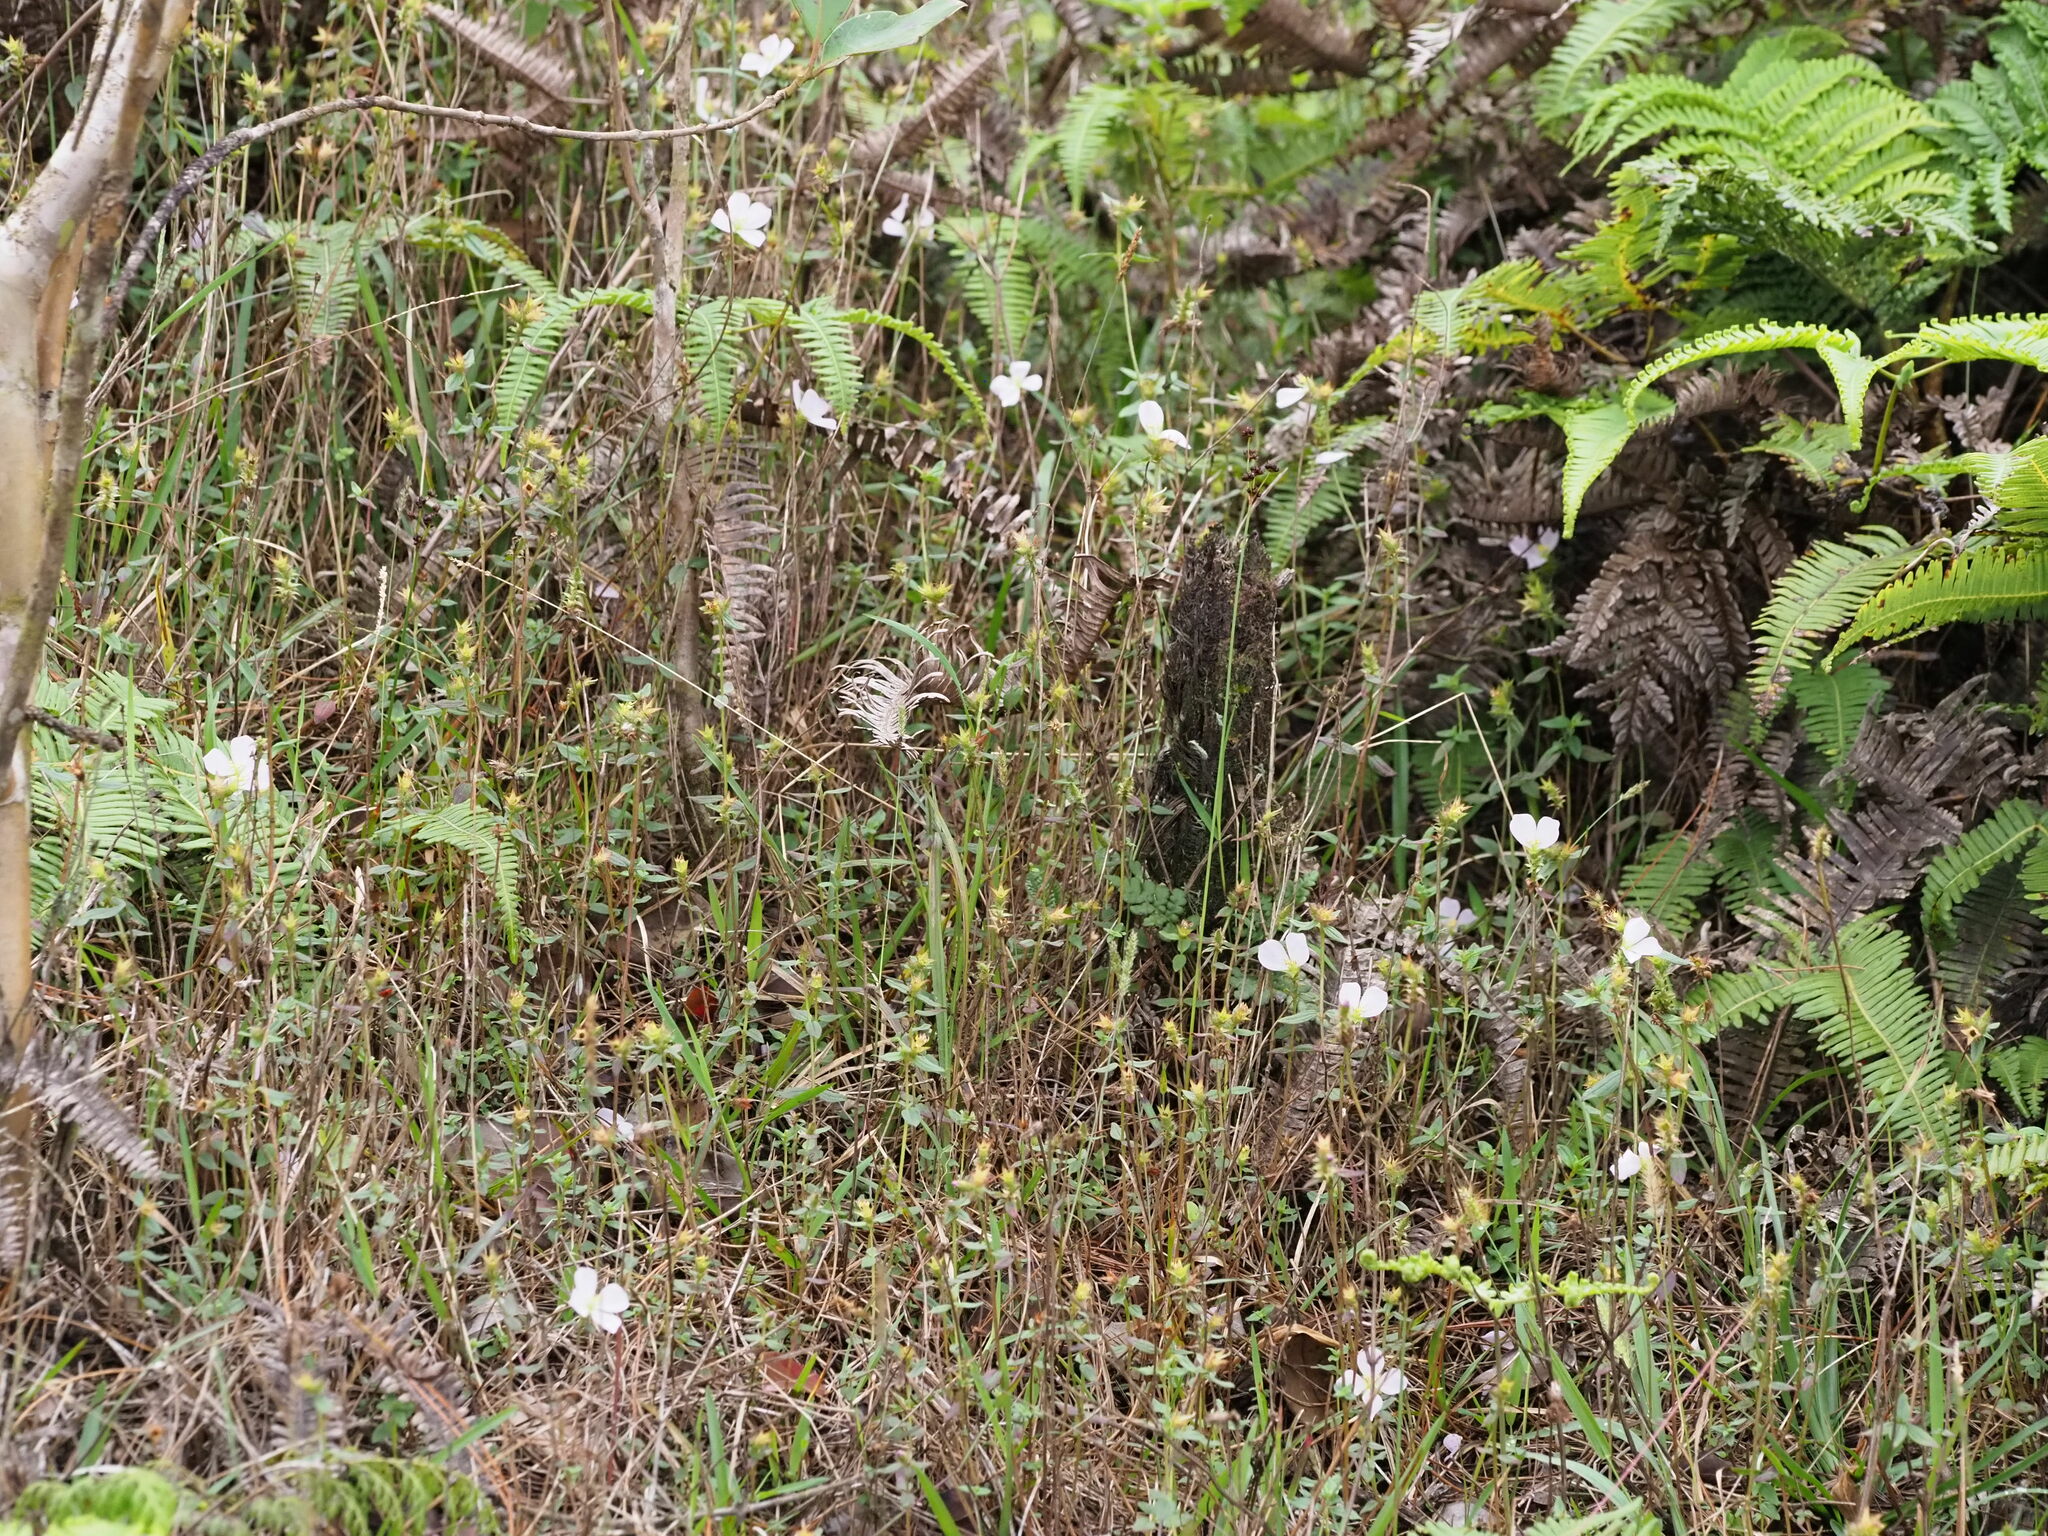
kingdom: Plantae
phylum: Tracheophyta
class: Magnoliopsida
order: Myrtales
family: Melastomataceae
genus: Pterolepis
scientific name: Pterolepis glomerata
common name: False meadowbeauty
